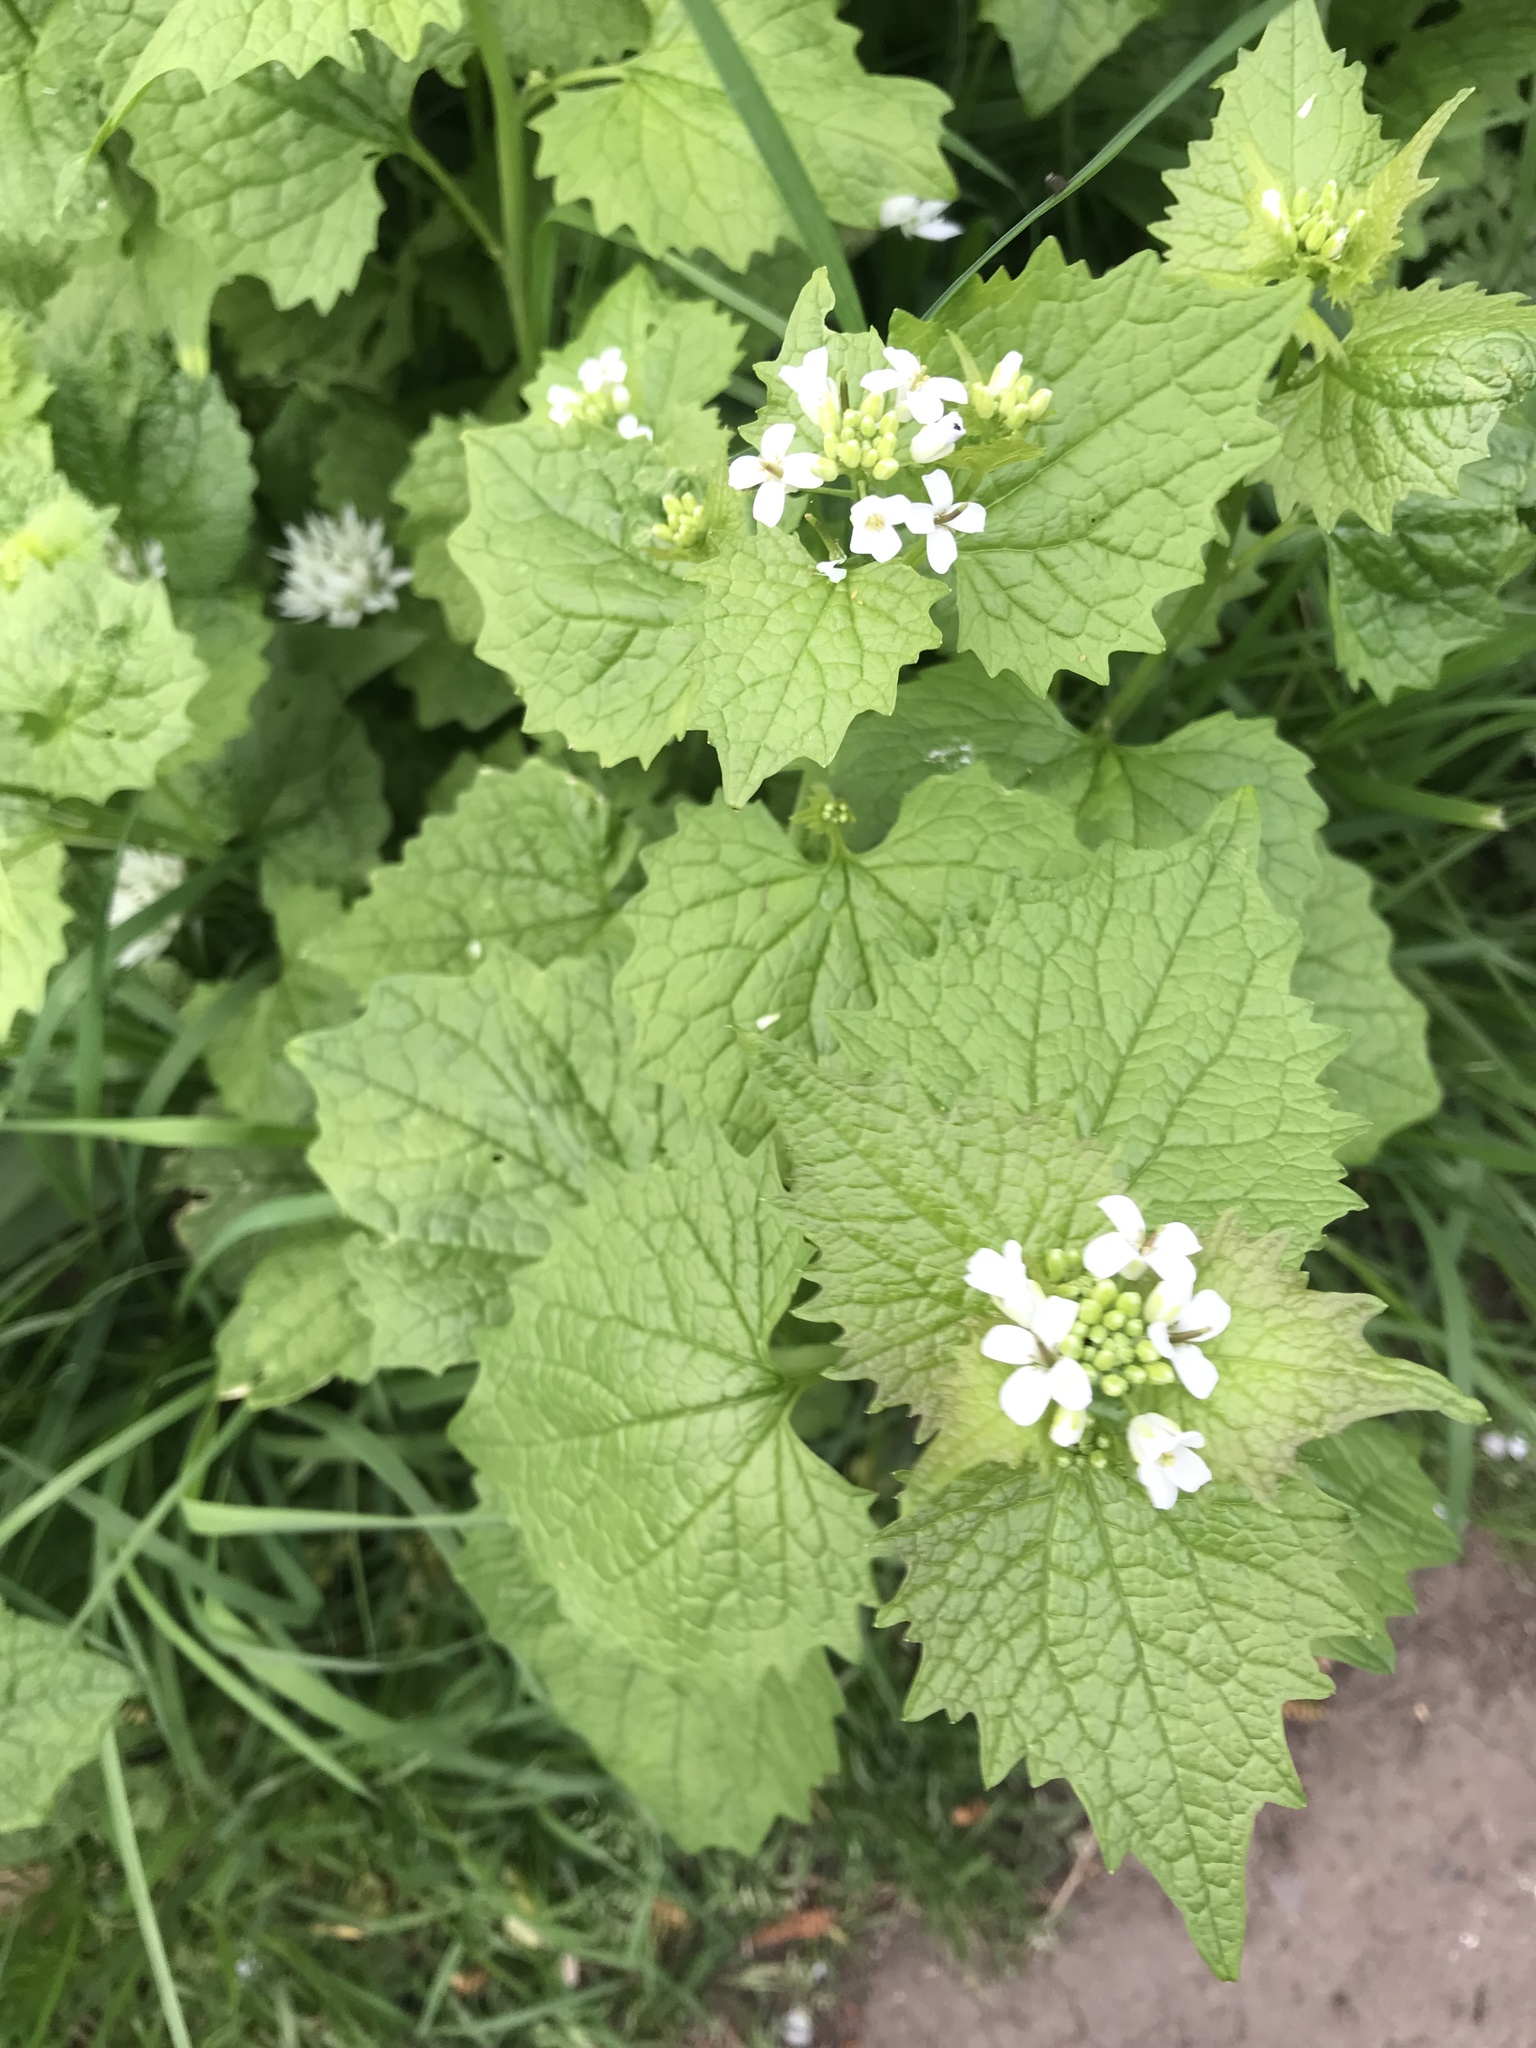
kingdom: Plantae
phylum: Tracheophyta
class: Magnoliopsida
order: Brassicales
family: Brassicaceae
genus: Alliaria
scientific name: Alliaria petiolata
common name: Garlic mustard
